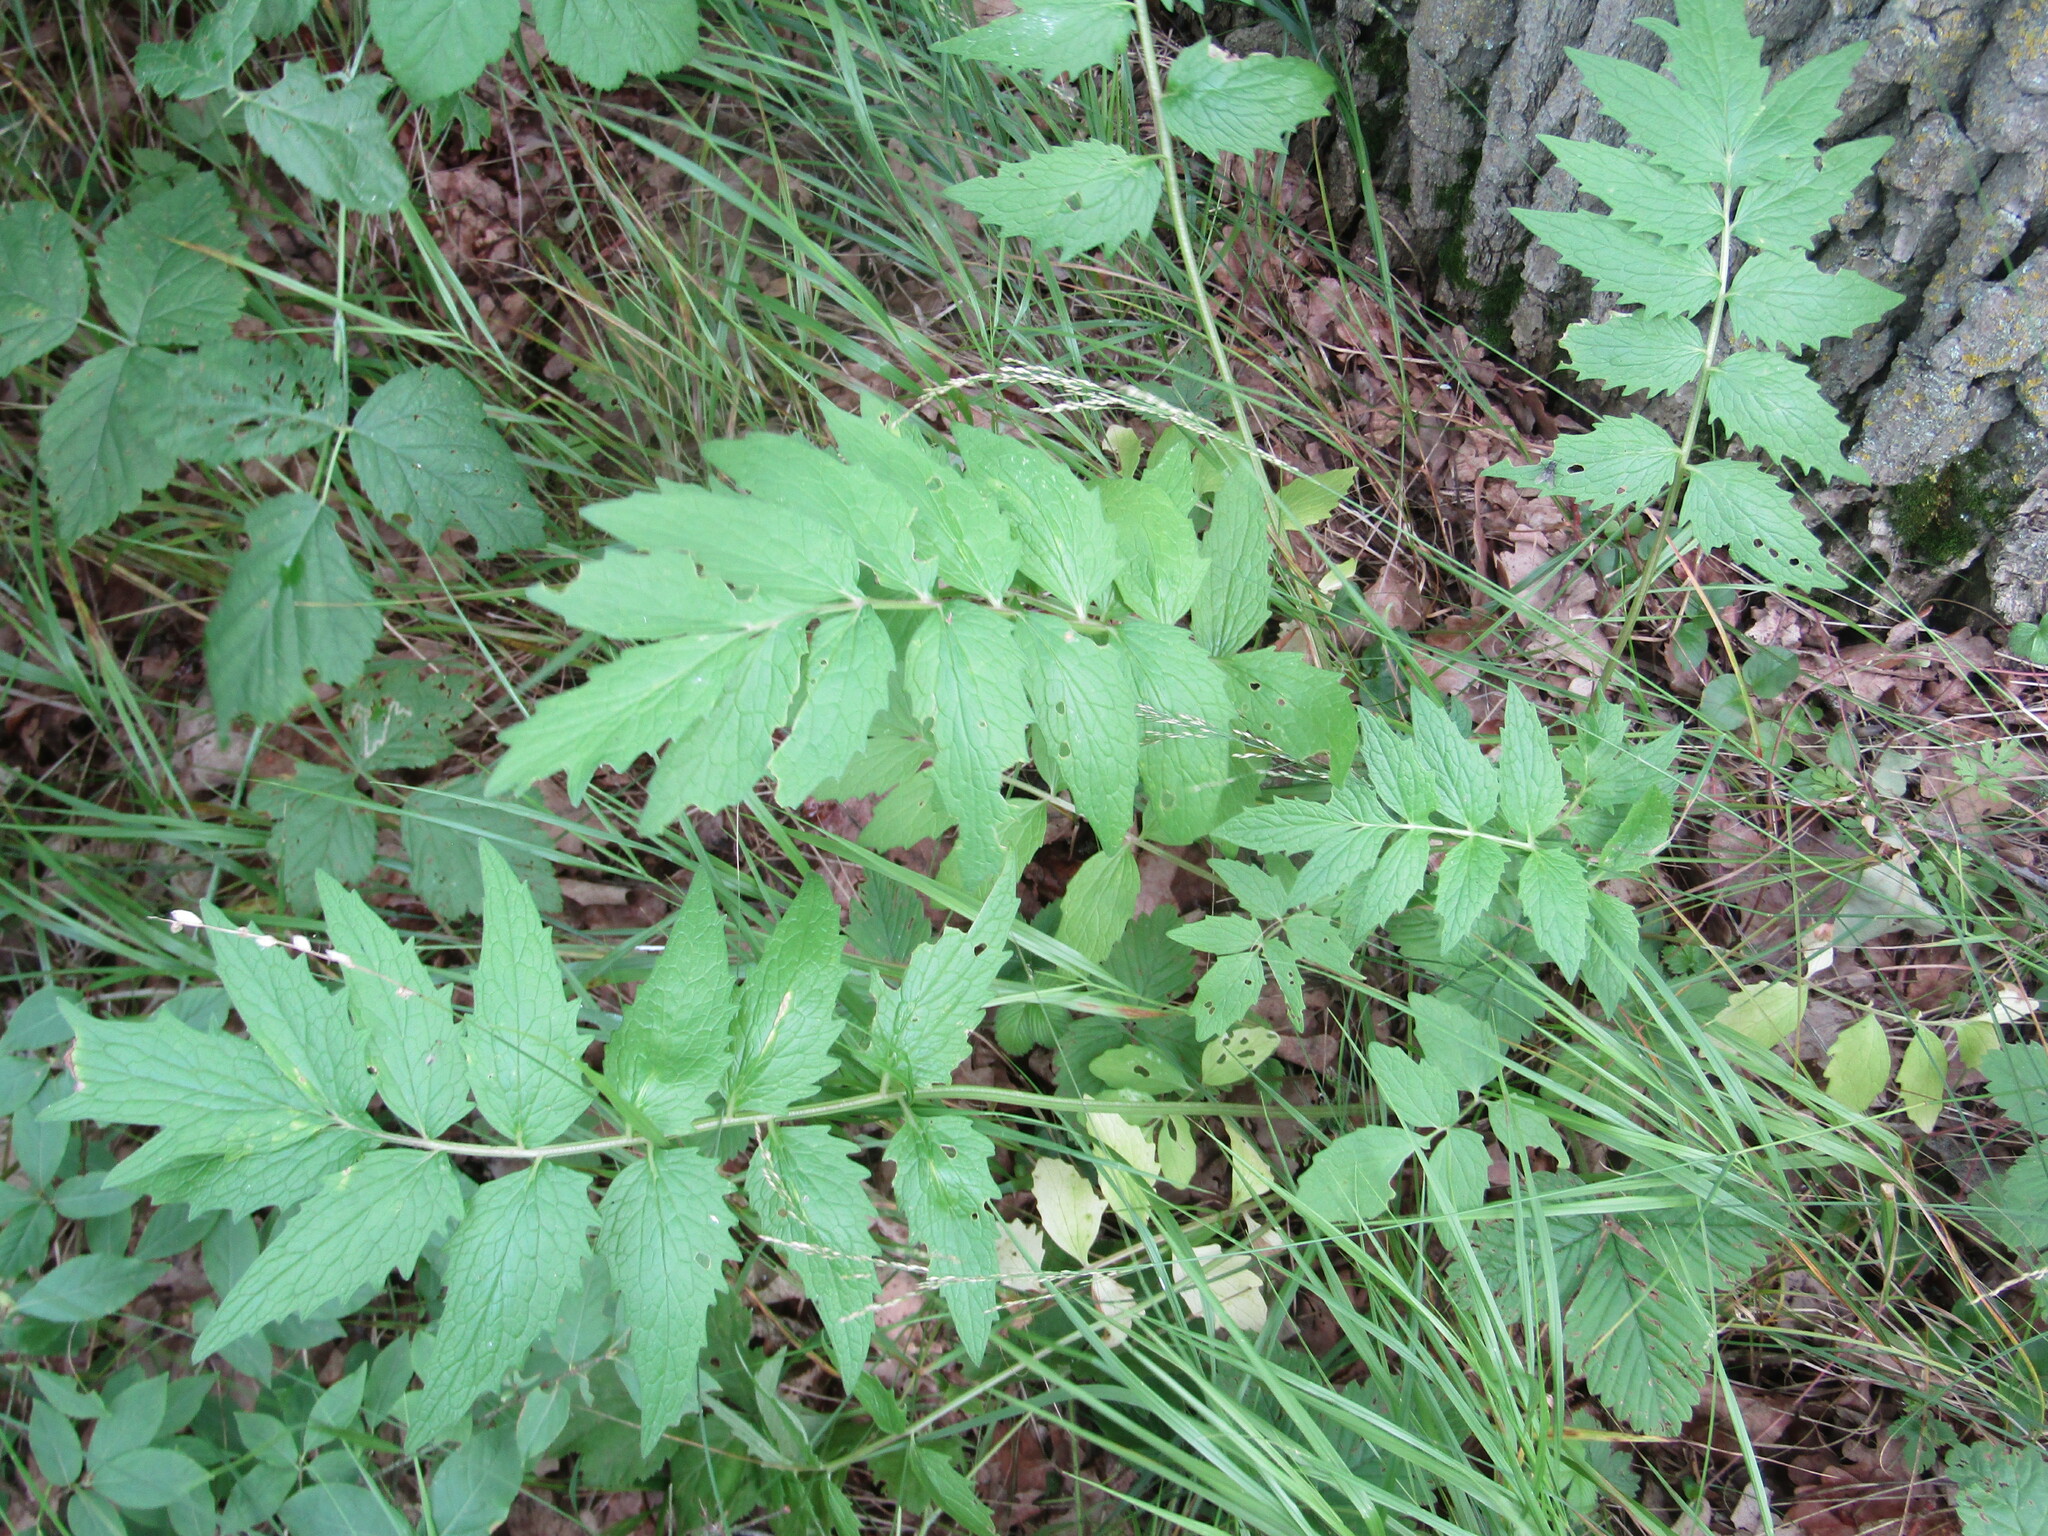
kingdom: Plantae
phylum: Tracheophyta
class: Magnoliopsida
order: Dipsacales
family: Caprifoliaceae
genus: Valeriana
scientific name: Valeriana officinalis
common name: Common valerian
